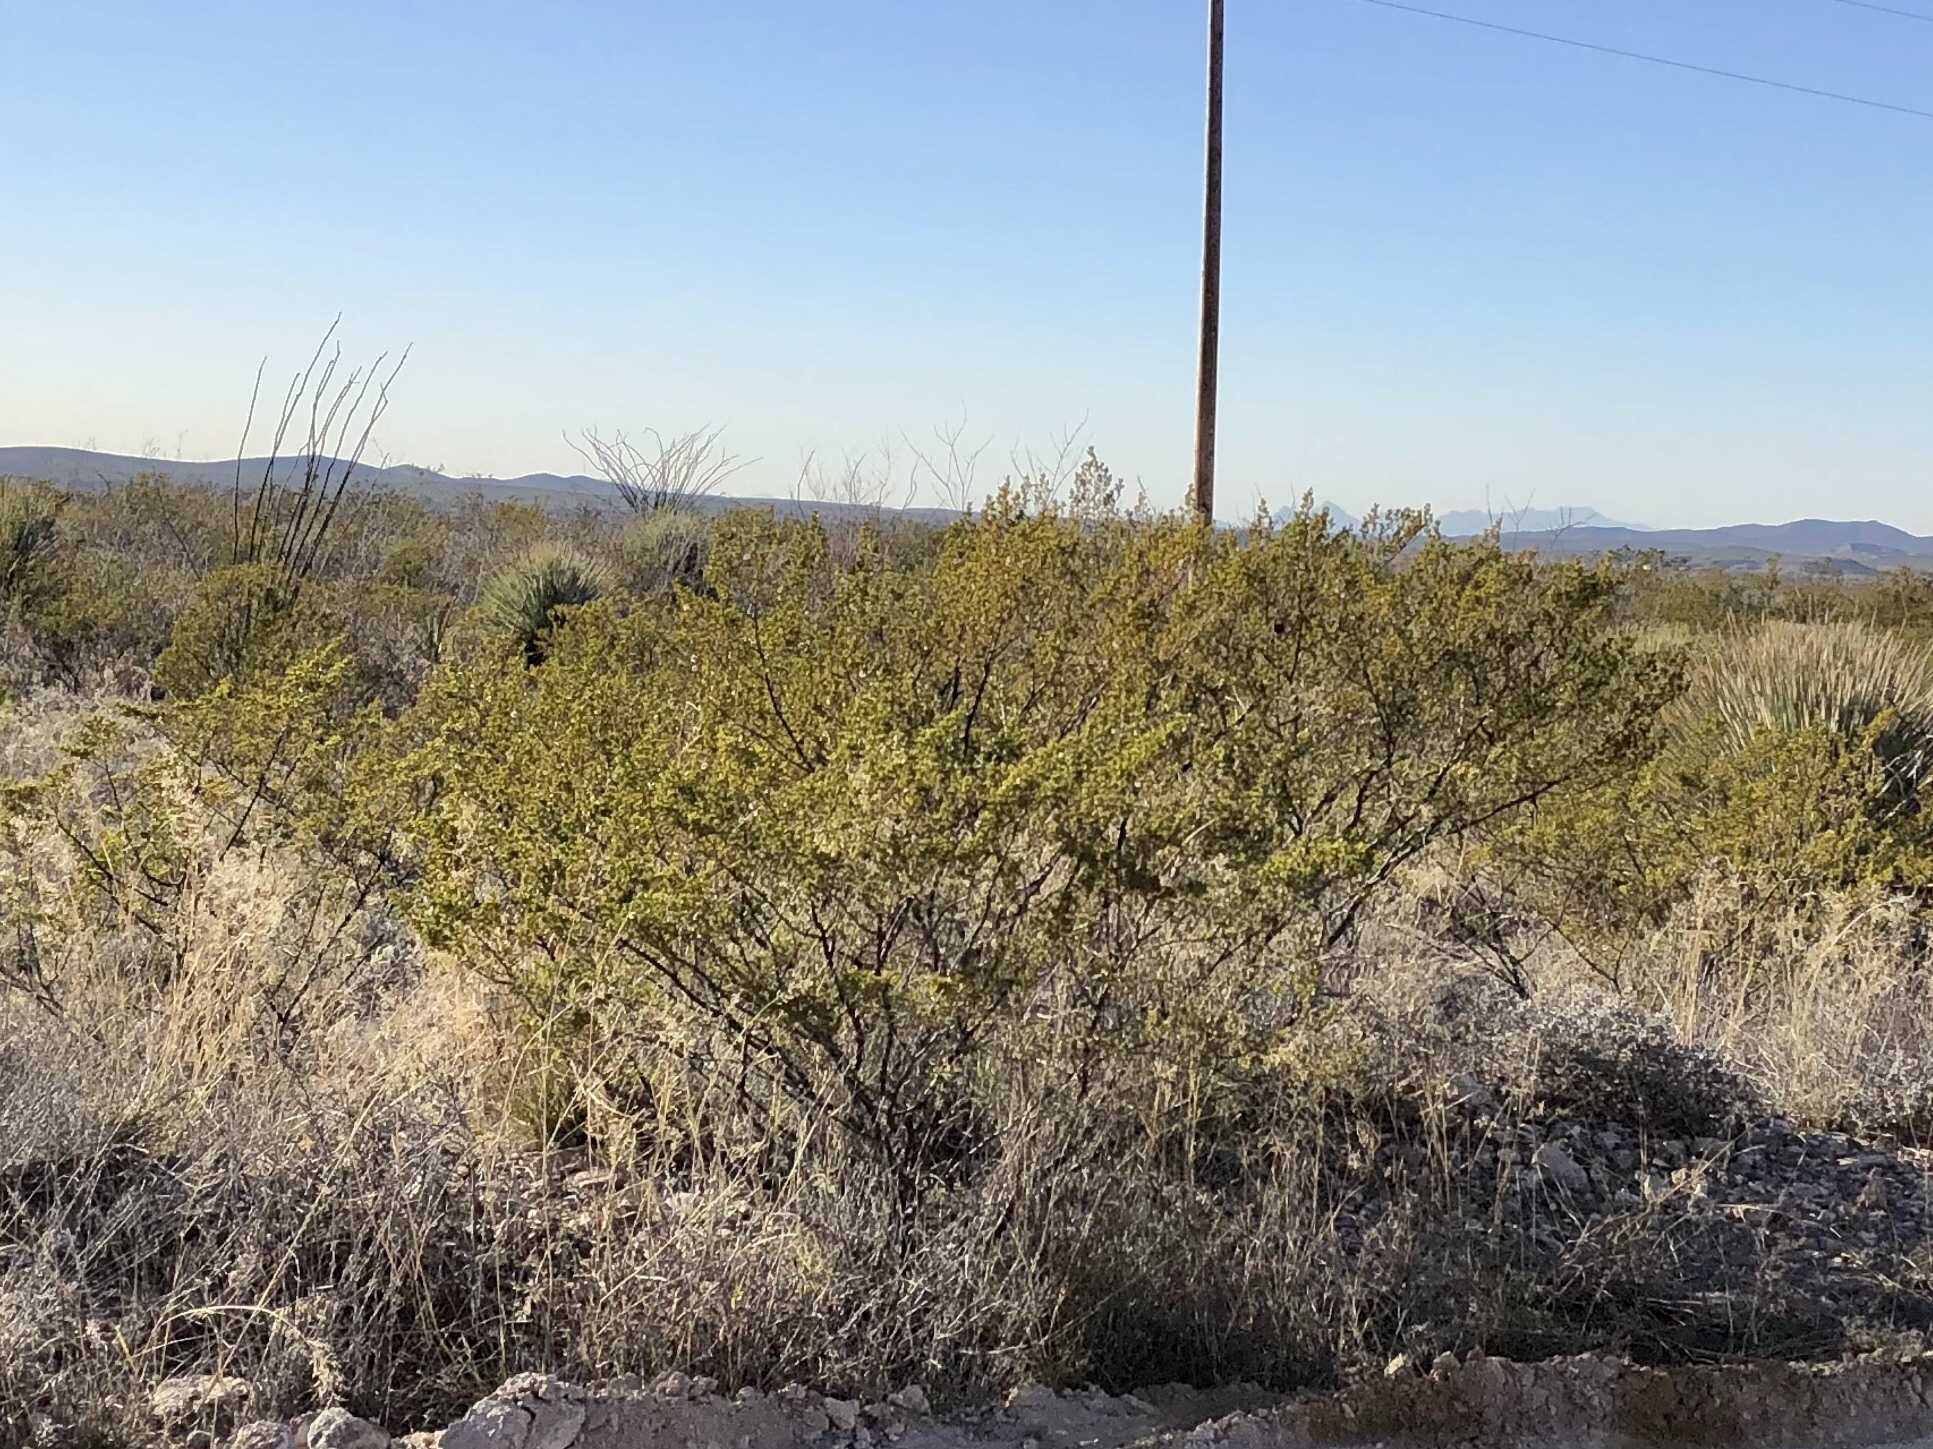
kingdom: Plantae
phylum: Tracheophyta
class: Magnoliopsida
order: Zygophyllales
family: Zygophyllaceae
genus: Larrea
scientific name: Larrea tridentata
